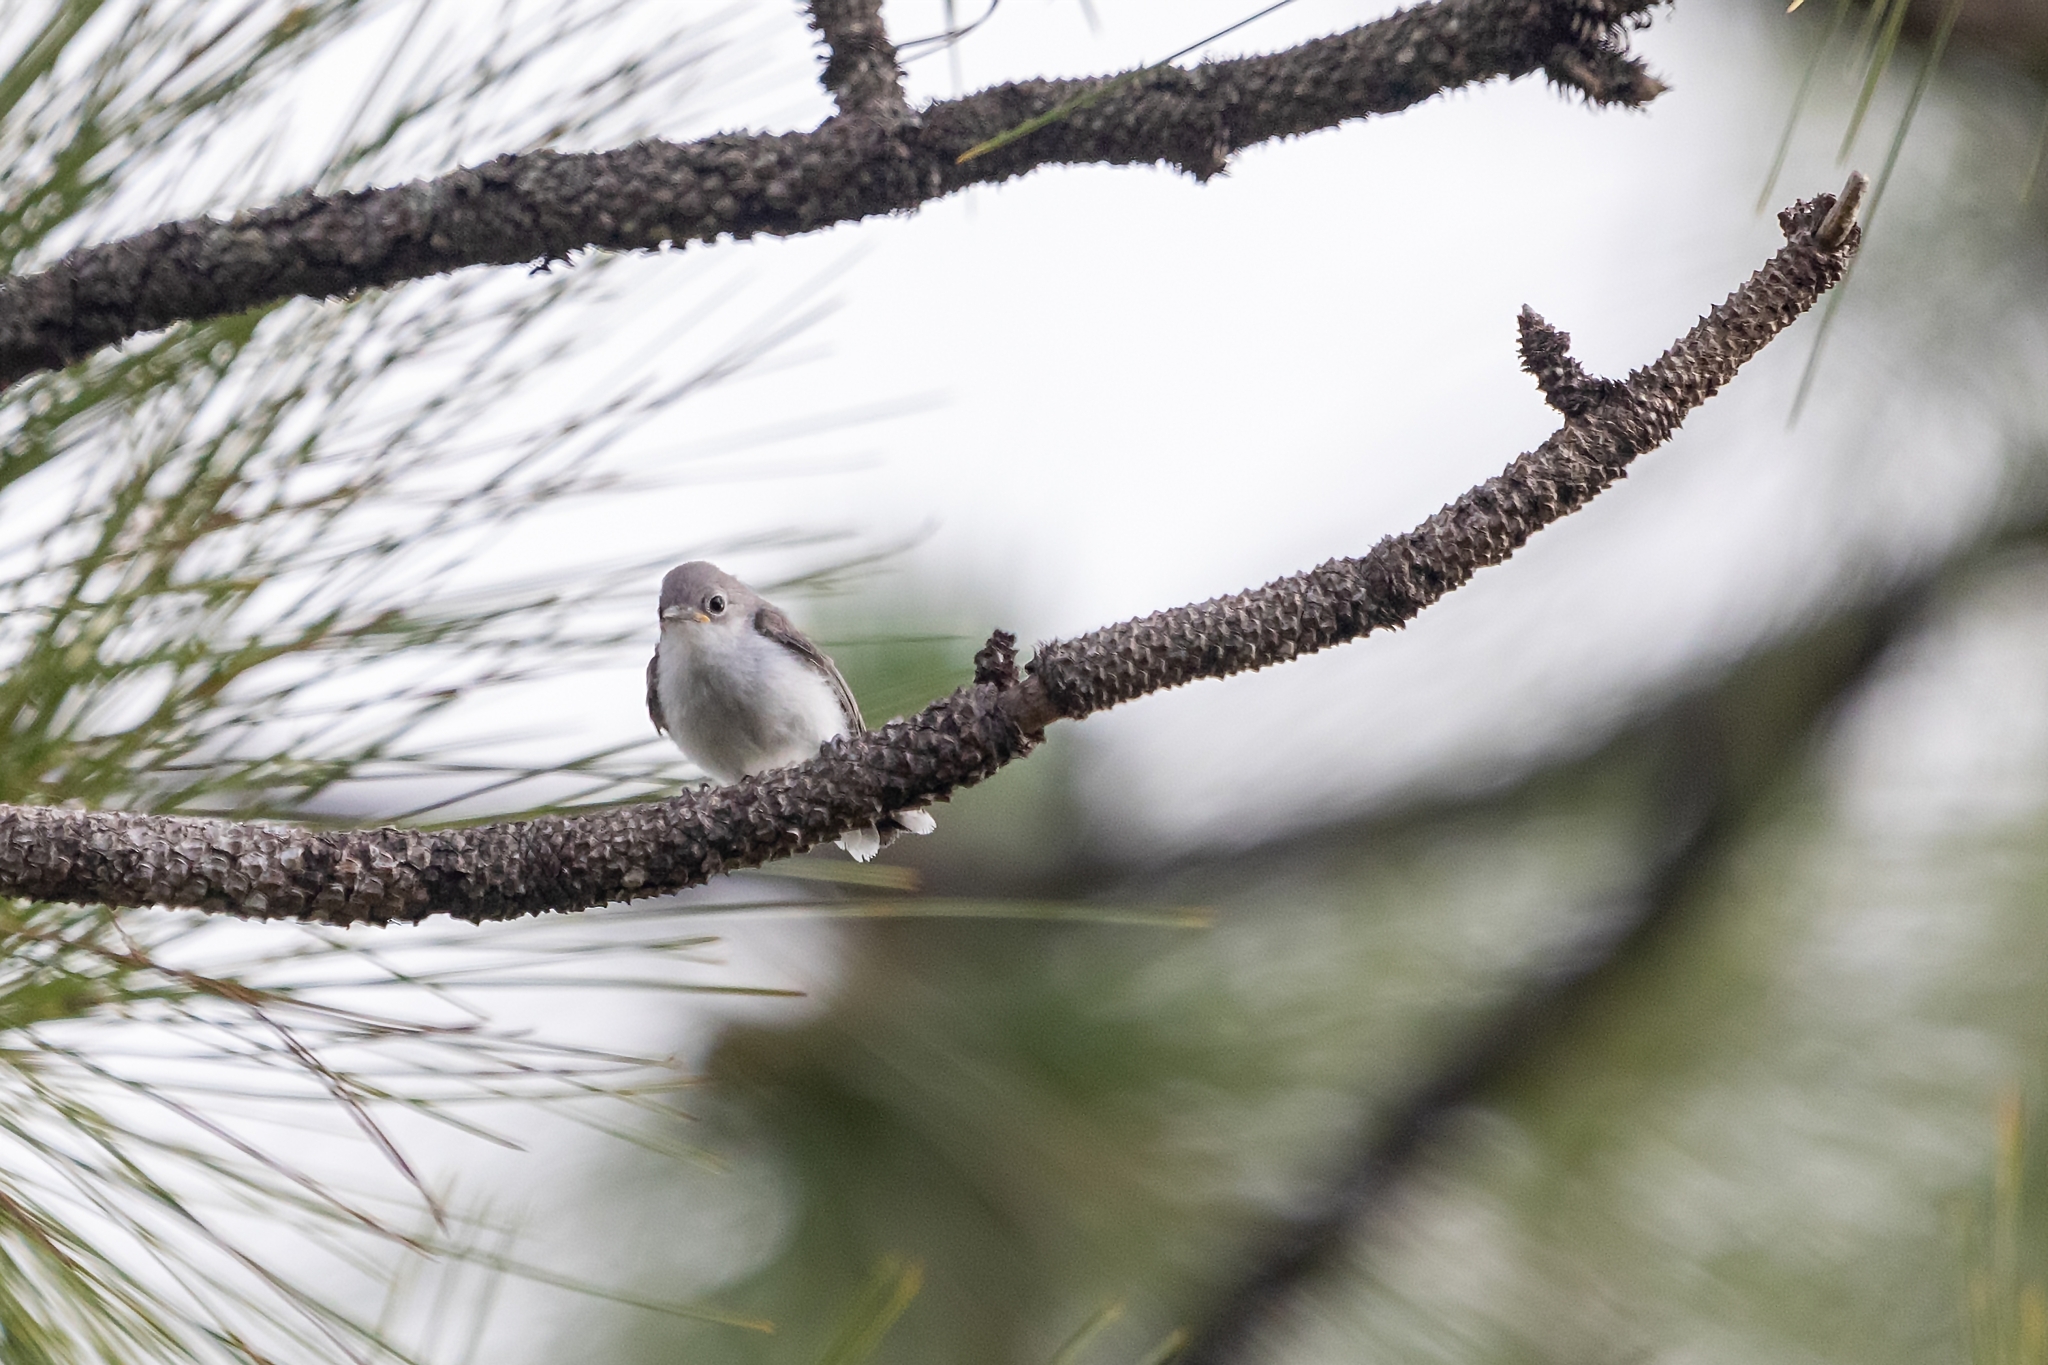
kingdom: Animalia
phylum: Chordata
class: Aves
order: Passeriformes
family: Polioptilidae
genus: Polioptila
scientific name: Polioptila caerulea
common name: Blue-gray gnatcatcher
